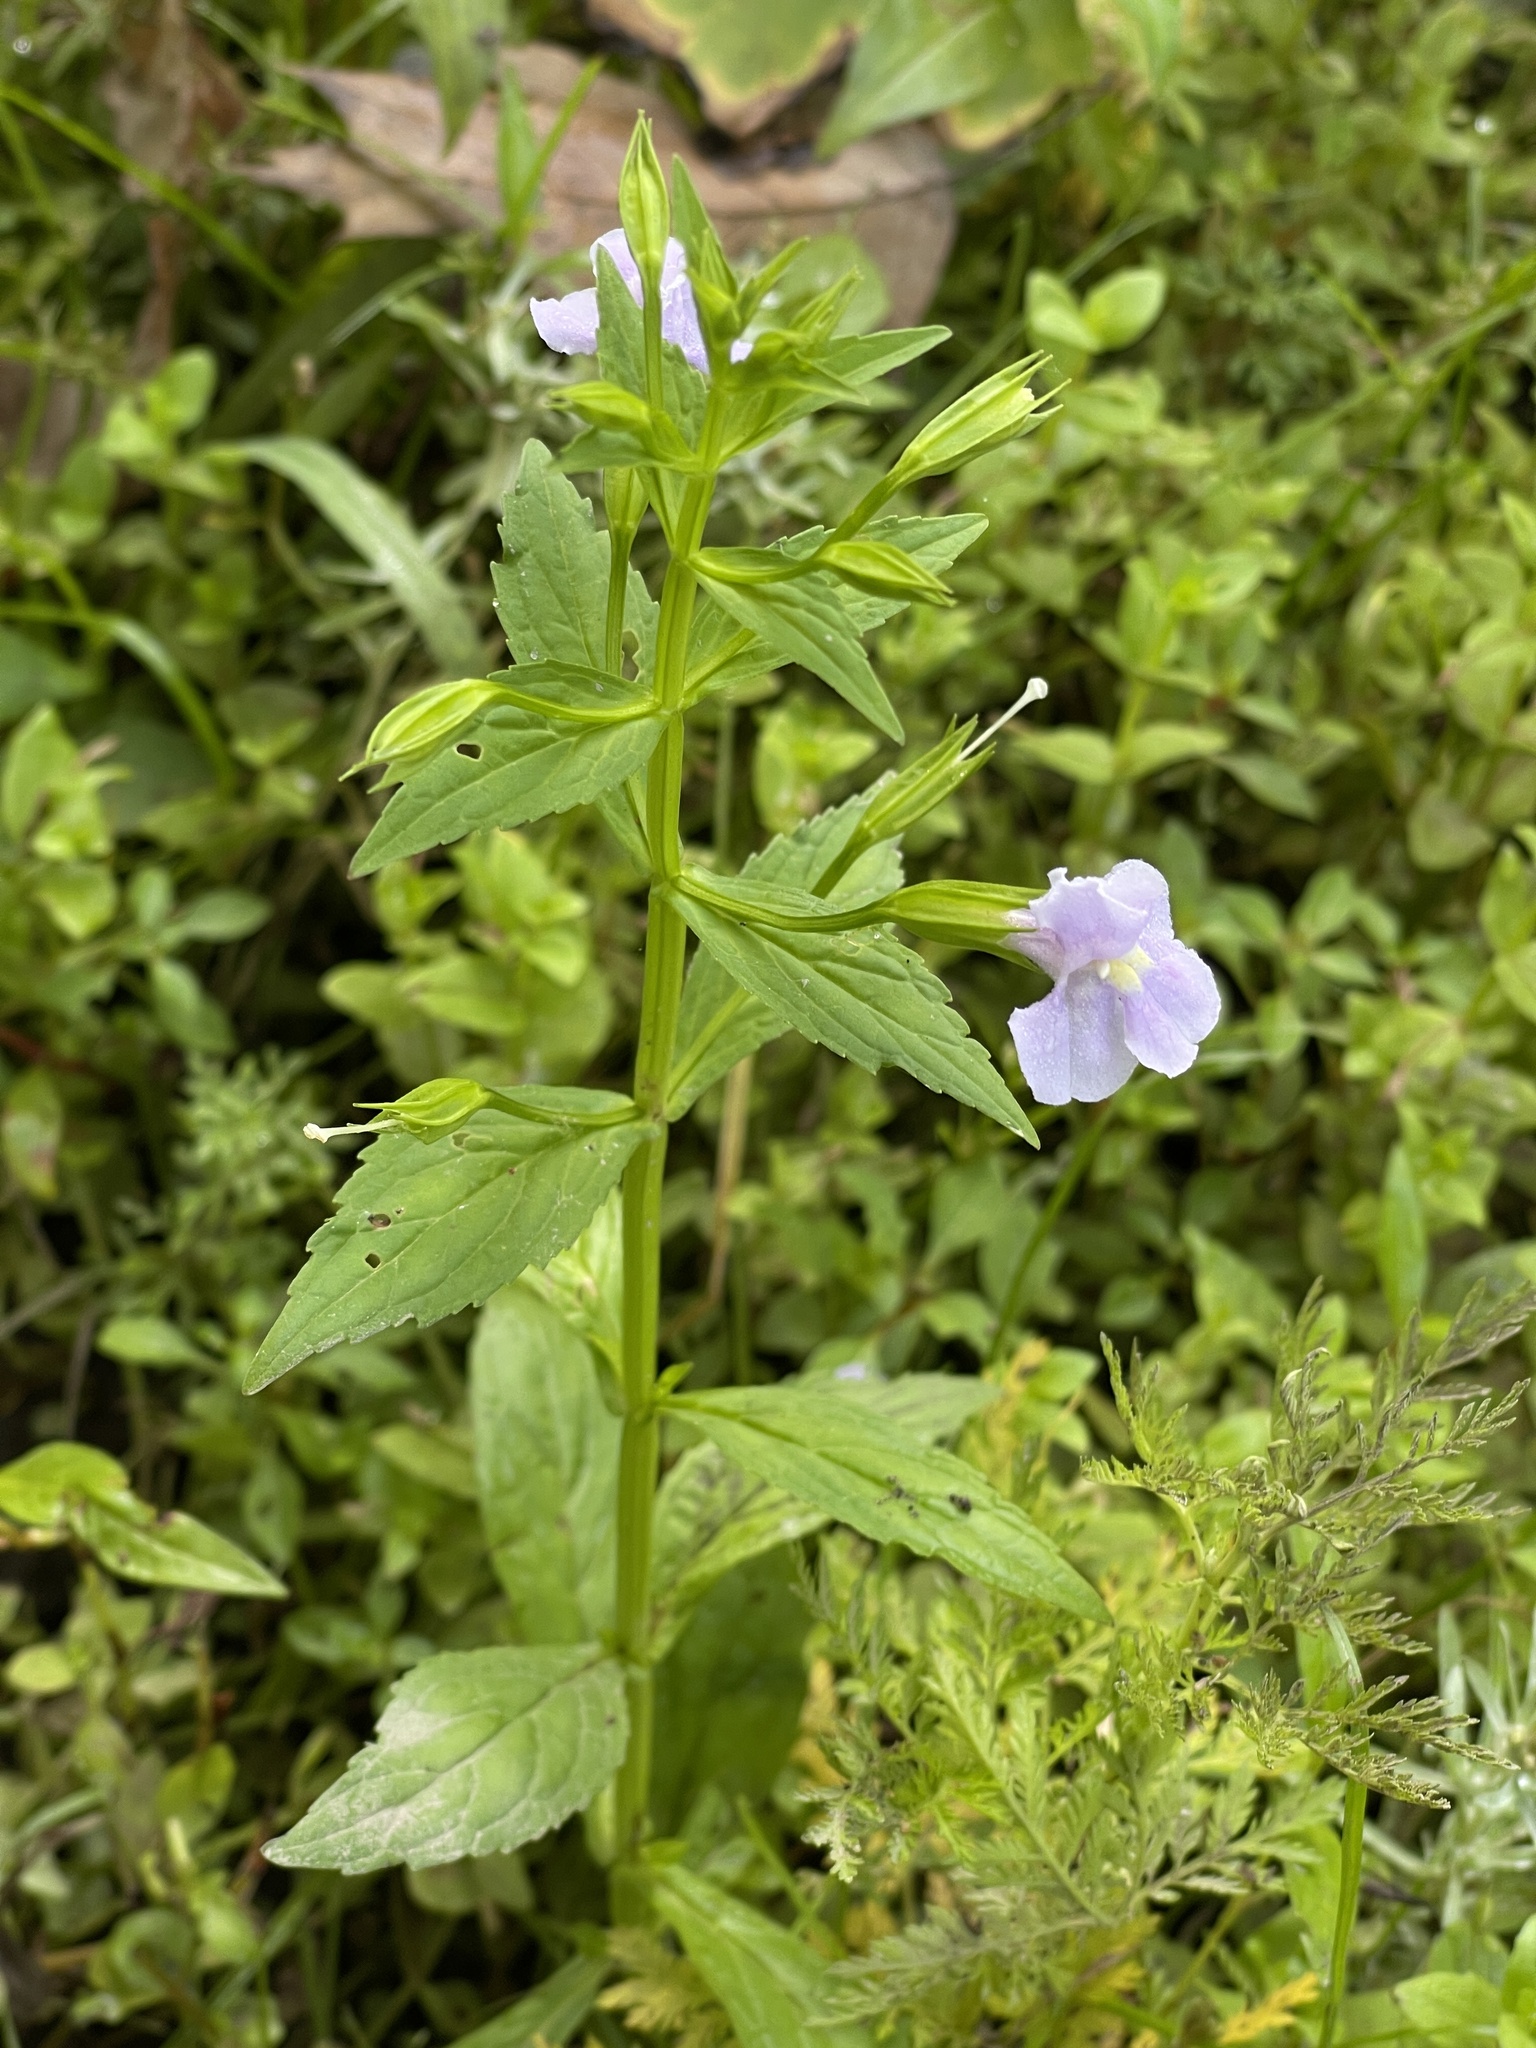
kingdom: Plantae
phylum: Tracheophyta
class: Magnoliopsida
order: Lamiales
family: Phrymaceae
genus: Mimulus
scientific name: Mimulus ringens
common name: Allegheny monkeyflower
